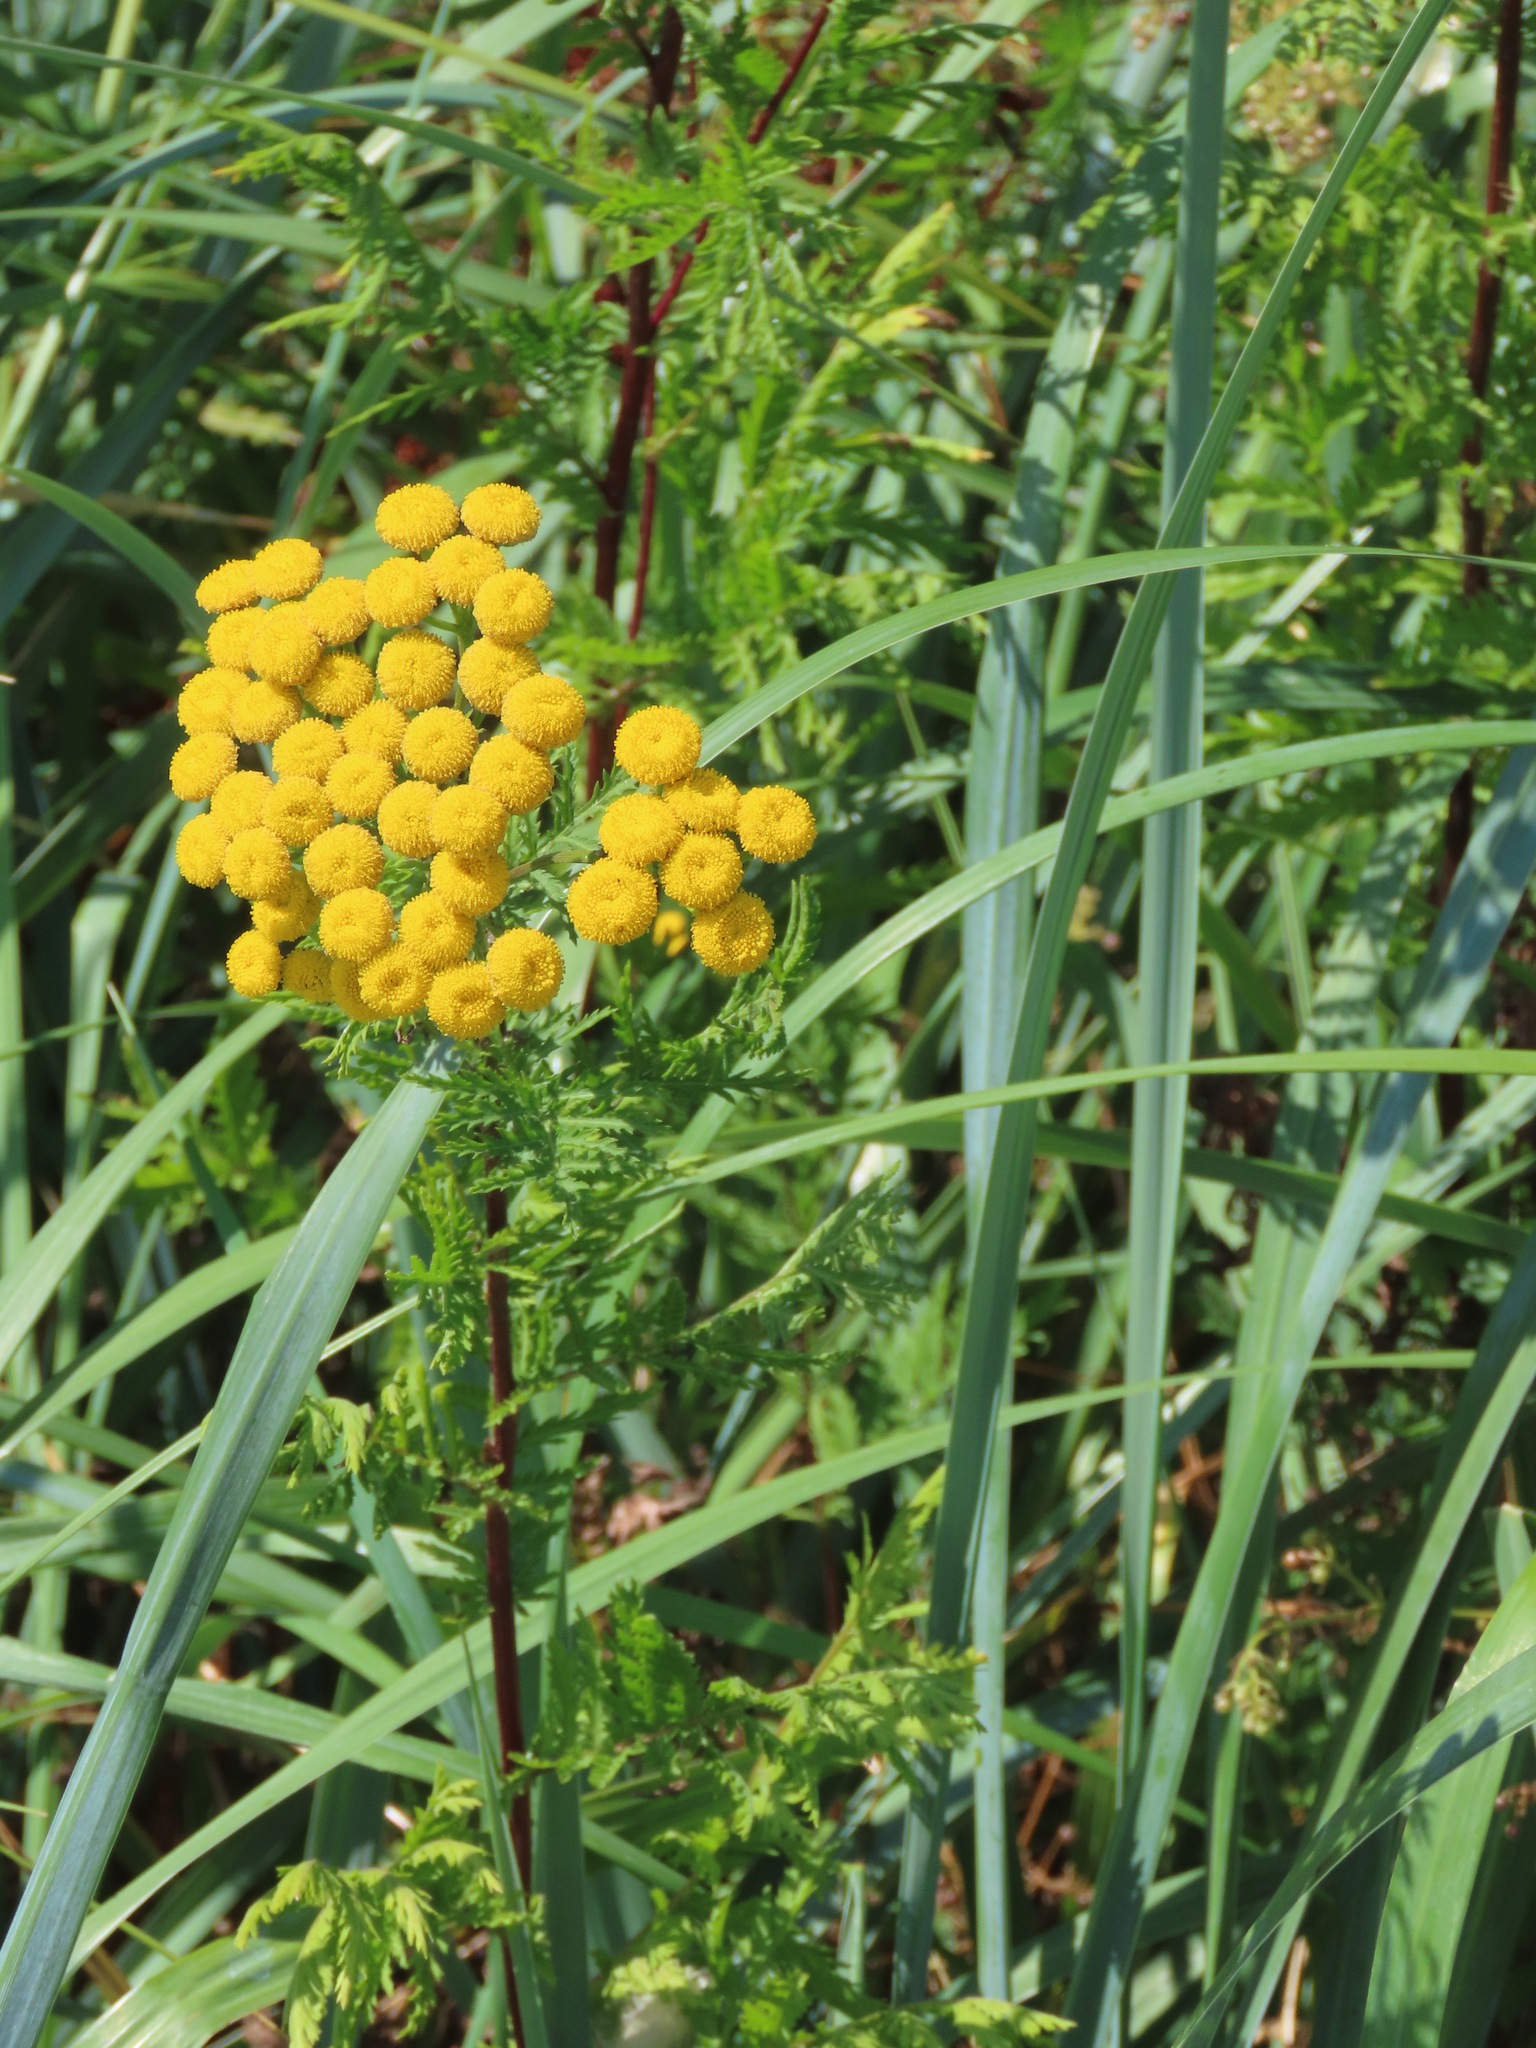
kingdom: Plantae
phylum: Tracheophyta
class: Magnoliopsida
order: Asterales
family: Asteraceae
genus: Tanacetum
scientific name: Tanacetum vulgare
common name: Common tansy
